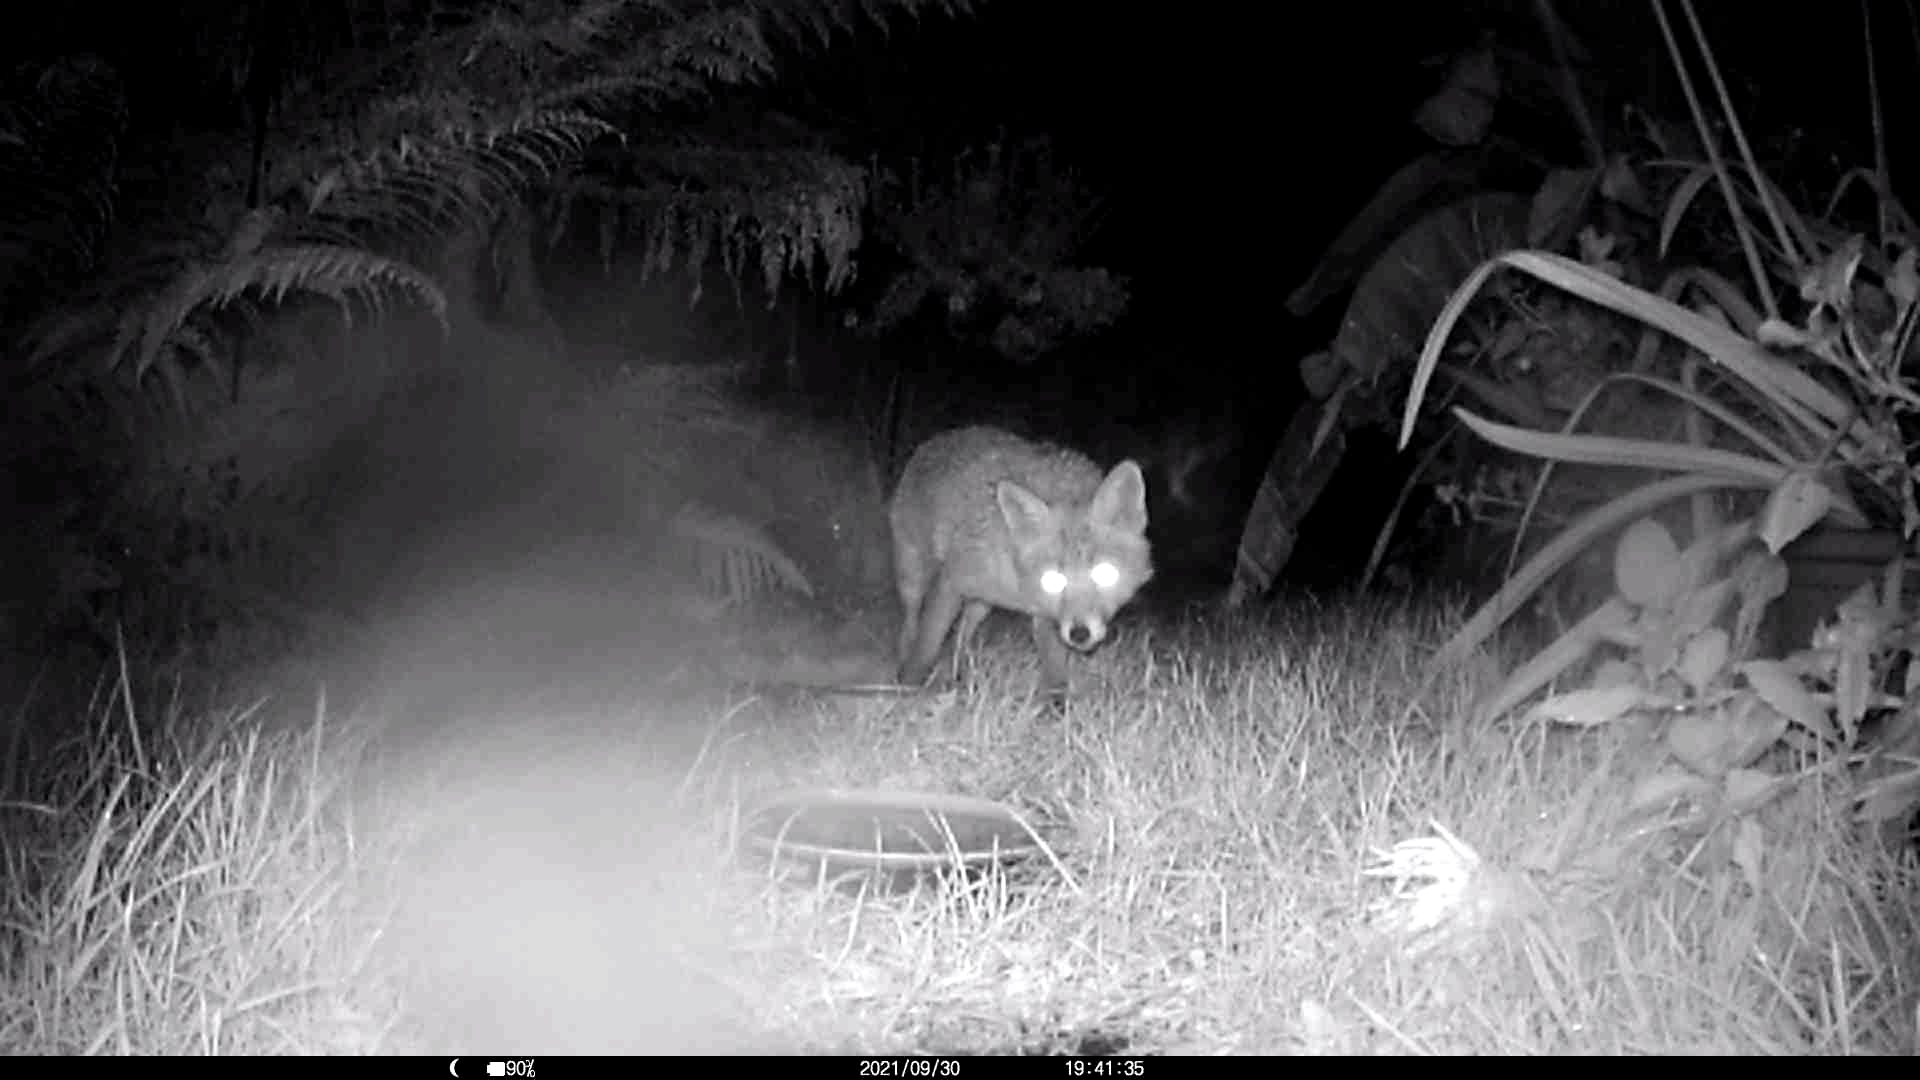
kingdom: Animalia
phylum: Chordata
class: Mammalia
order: Carnivora
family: Canidae
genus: Vulpes
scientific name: Vulpes vulpes
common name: Red fox
